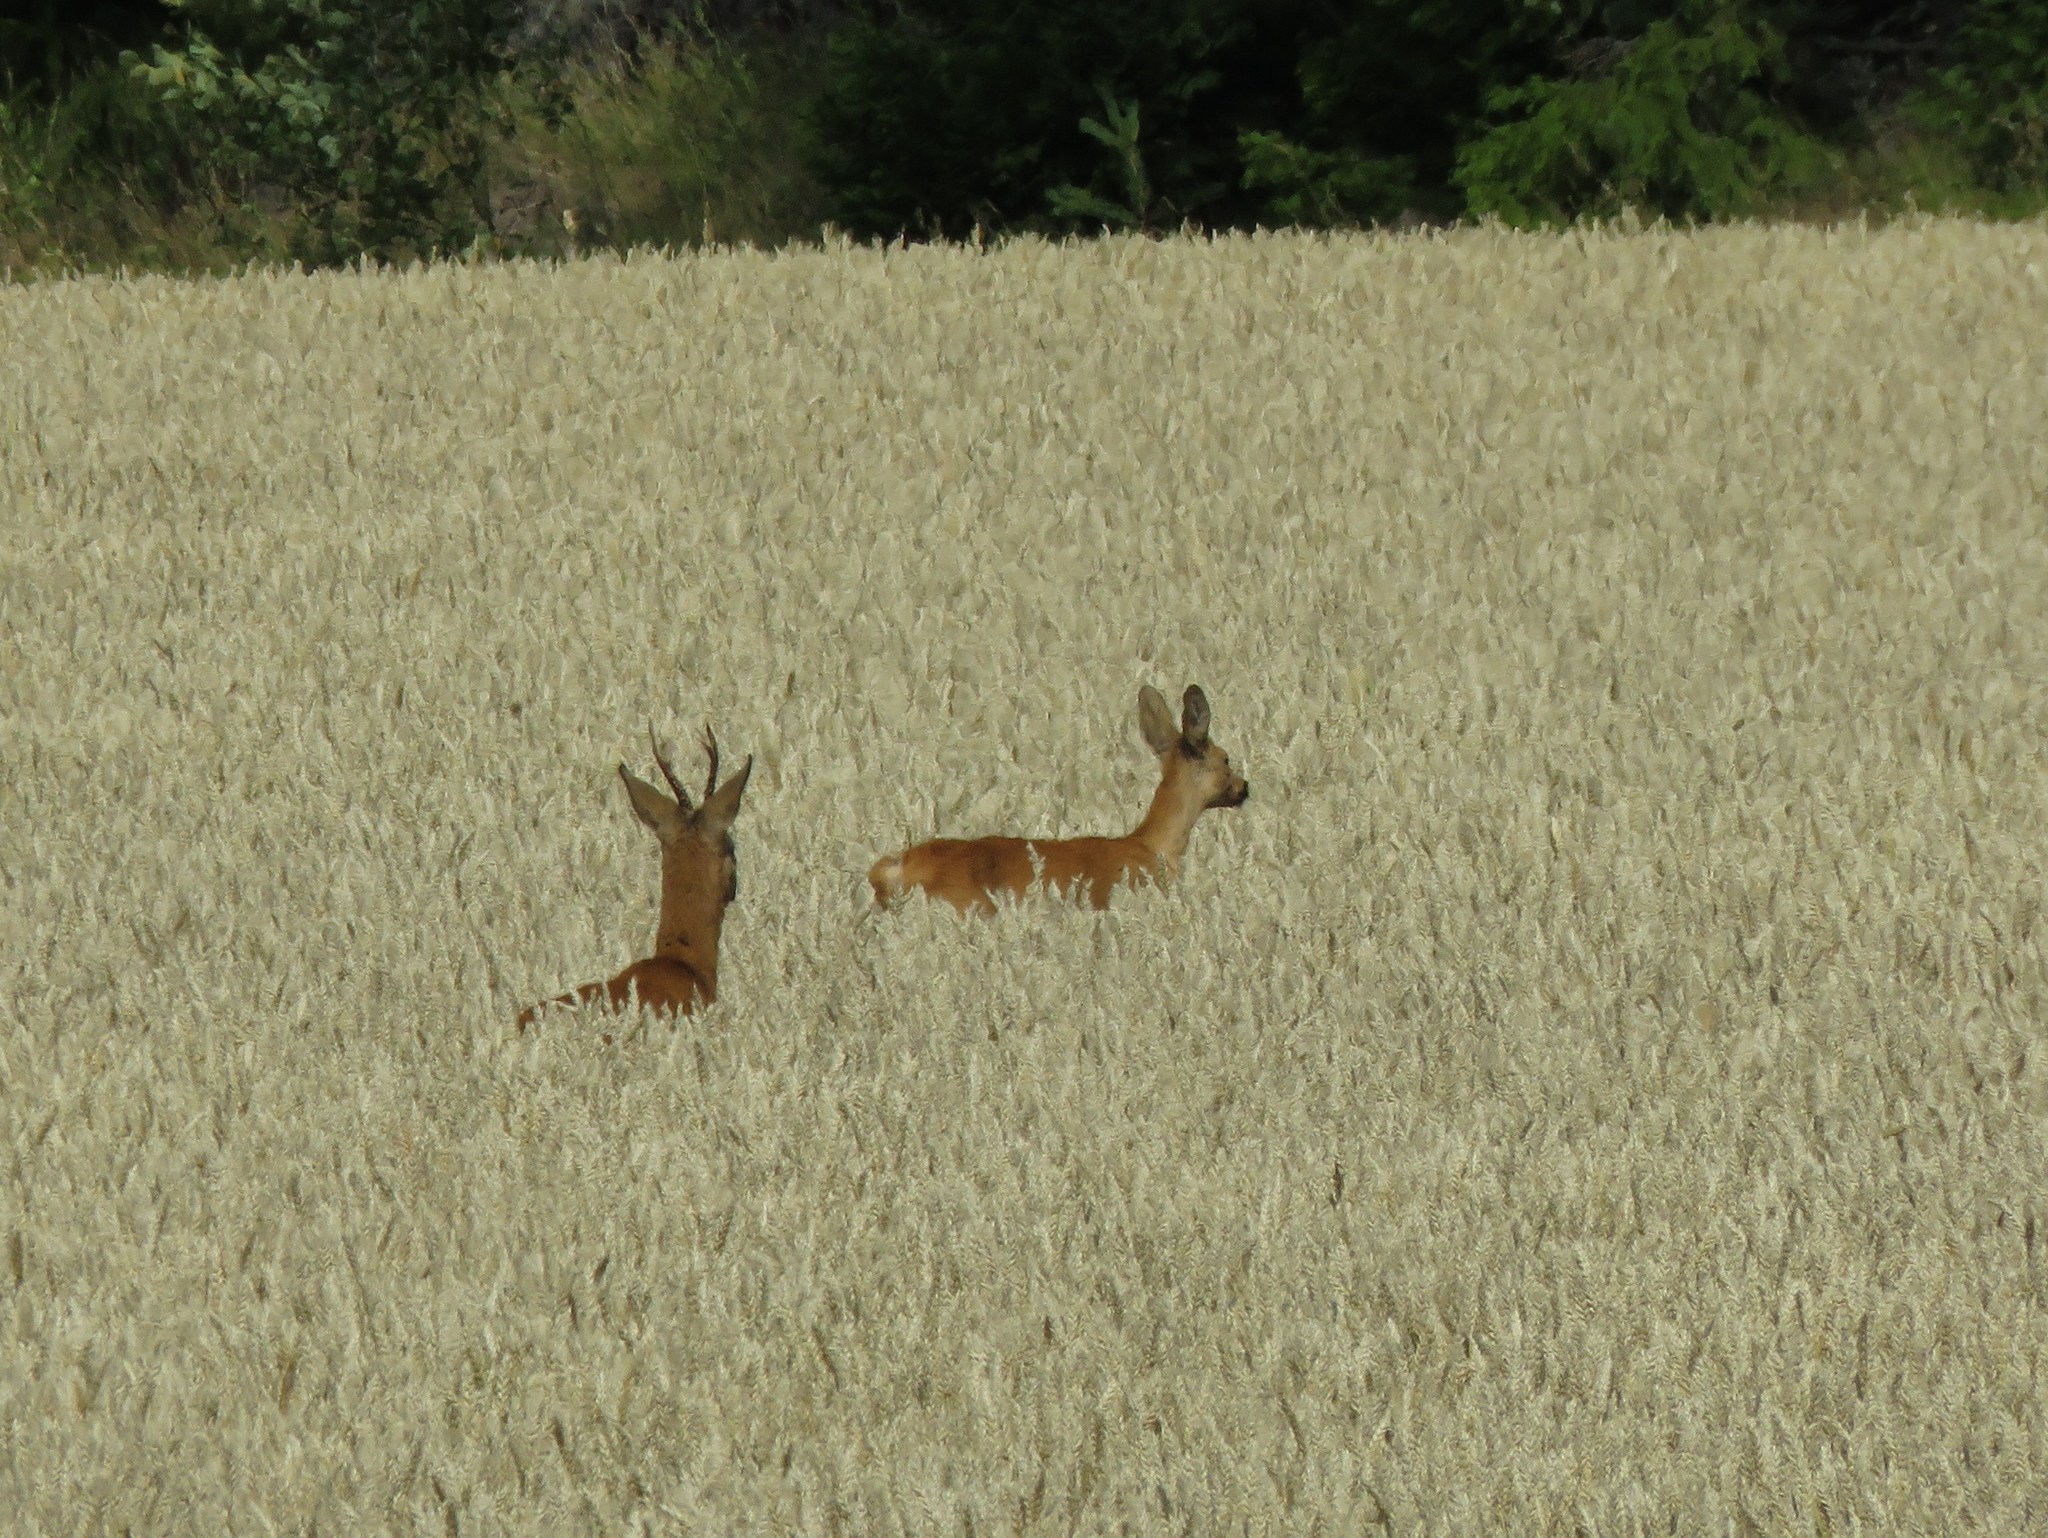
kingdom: Animalia
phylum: Chordata
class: Mammalia
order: Artiodactyla
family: Cervidae
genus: Capreolus
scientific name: Capreolus capreolus
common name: Western roe deer
